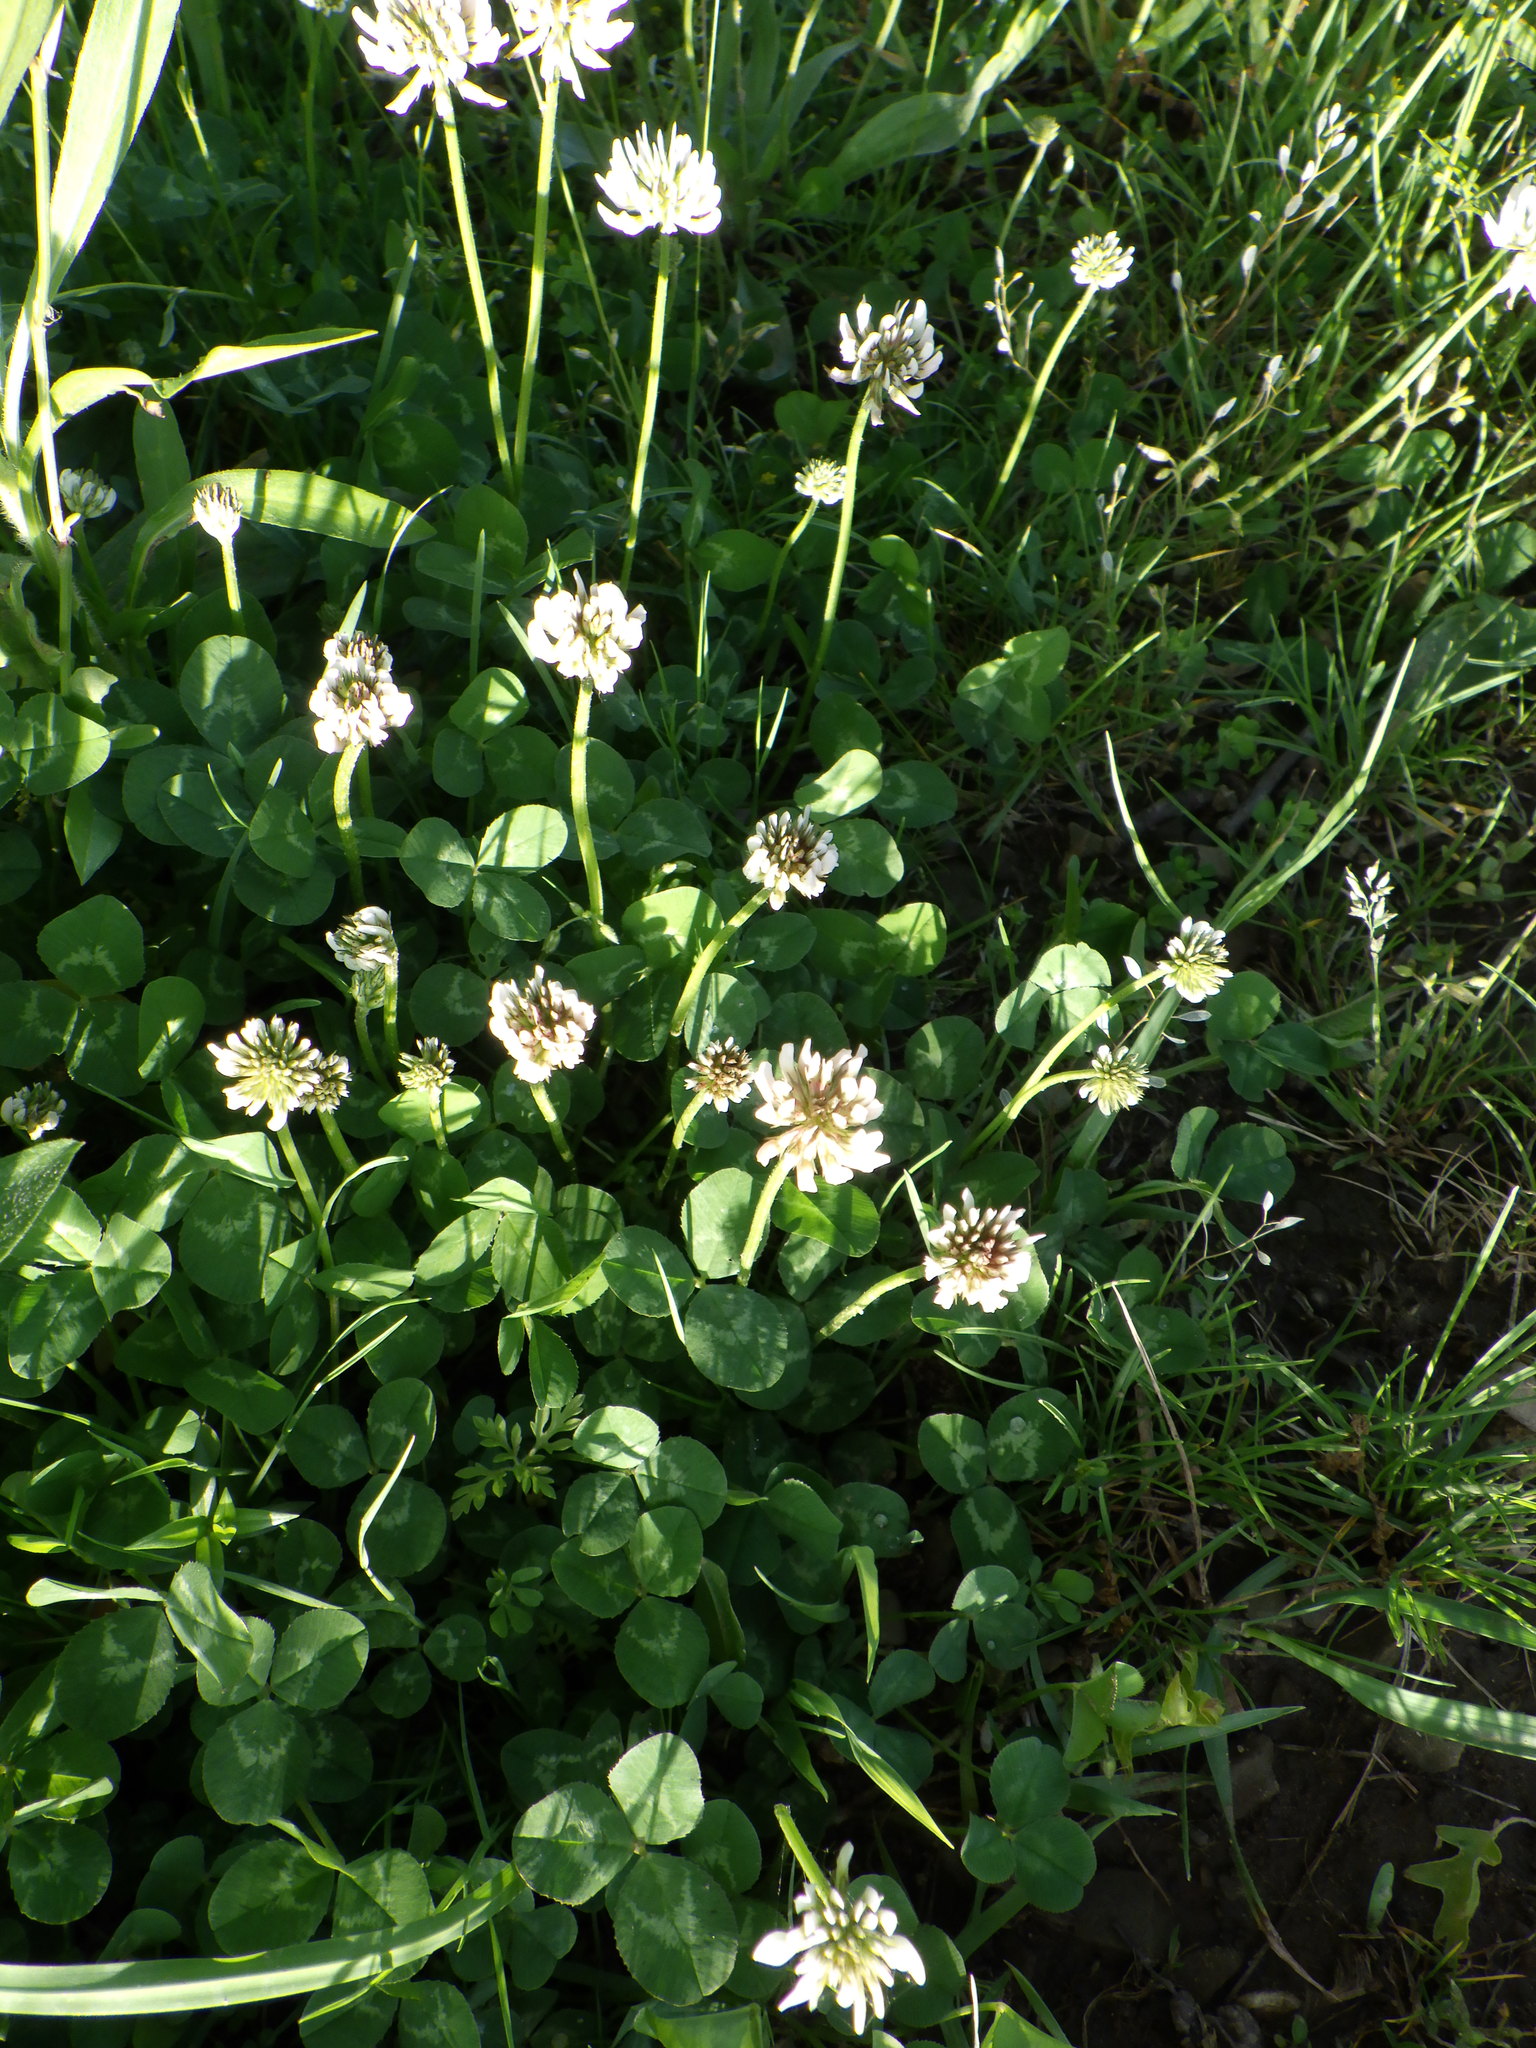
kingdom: Plantae
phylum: Tracheophyta
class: Magnoliopsida
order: Fabales
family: Fabaceae
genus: Trifolium
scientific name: Trifolium repens
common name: White clover
